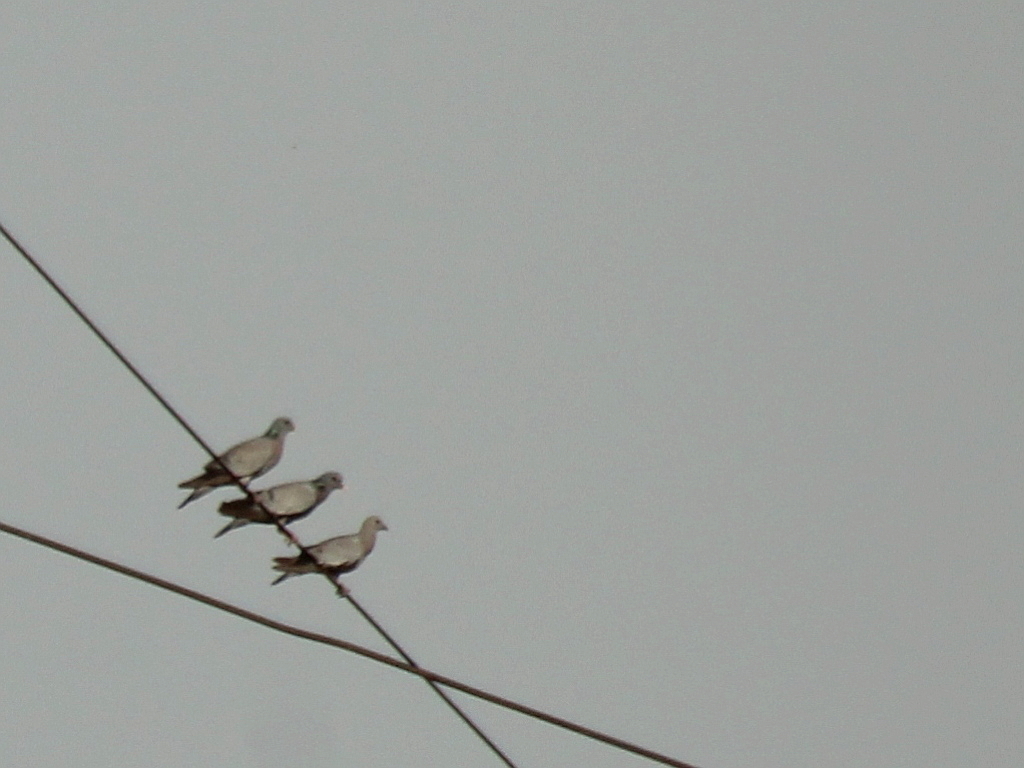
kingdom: Animalia
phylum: Chordata
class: Aves
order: Columbiformes
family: Columbidae
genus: Columba
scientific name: Columba oenas
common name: Stock dove
